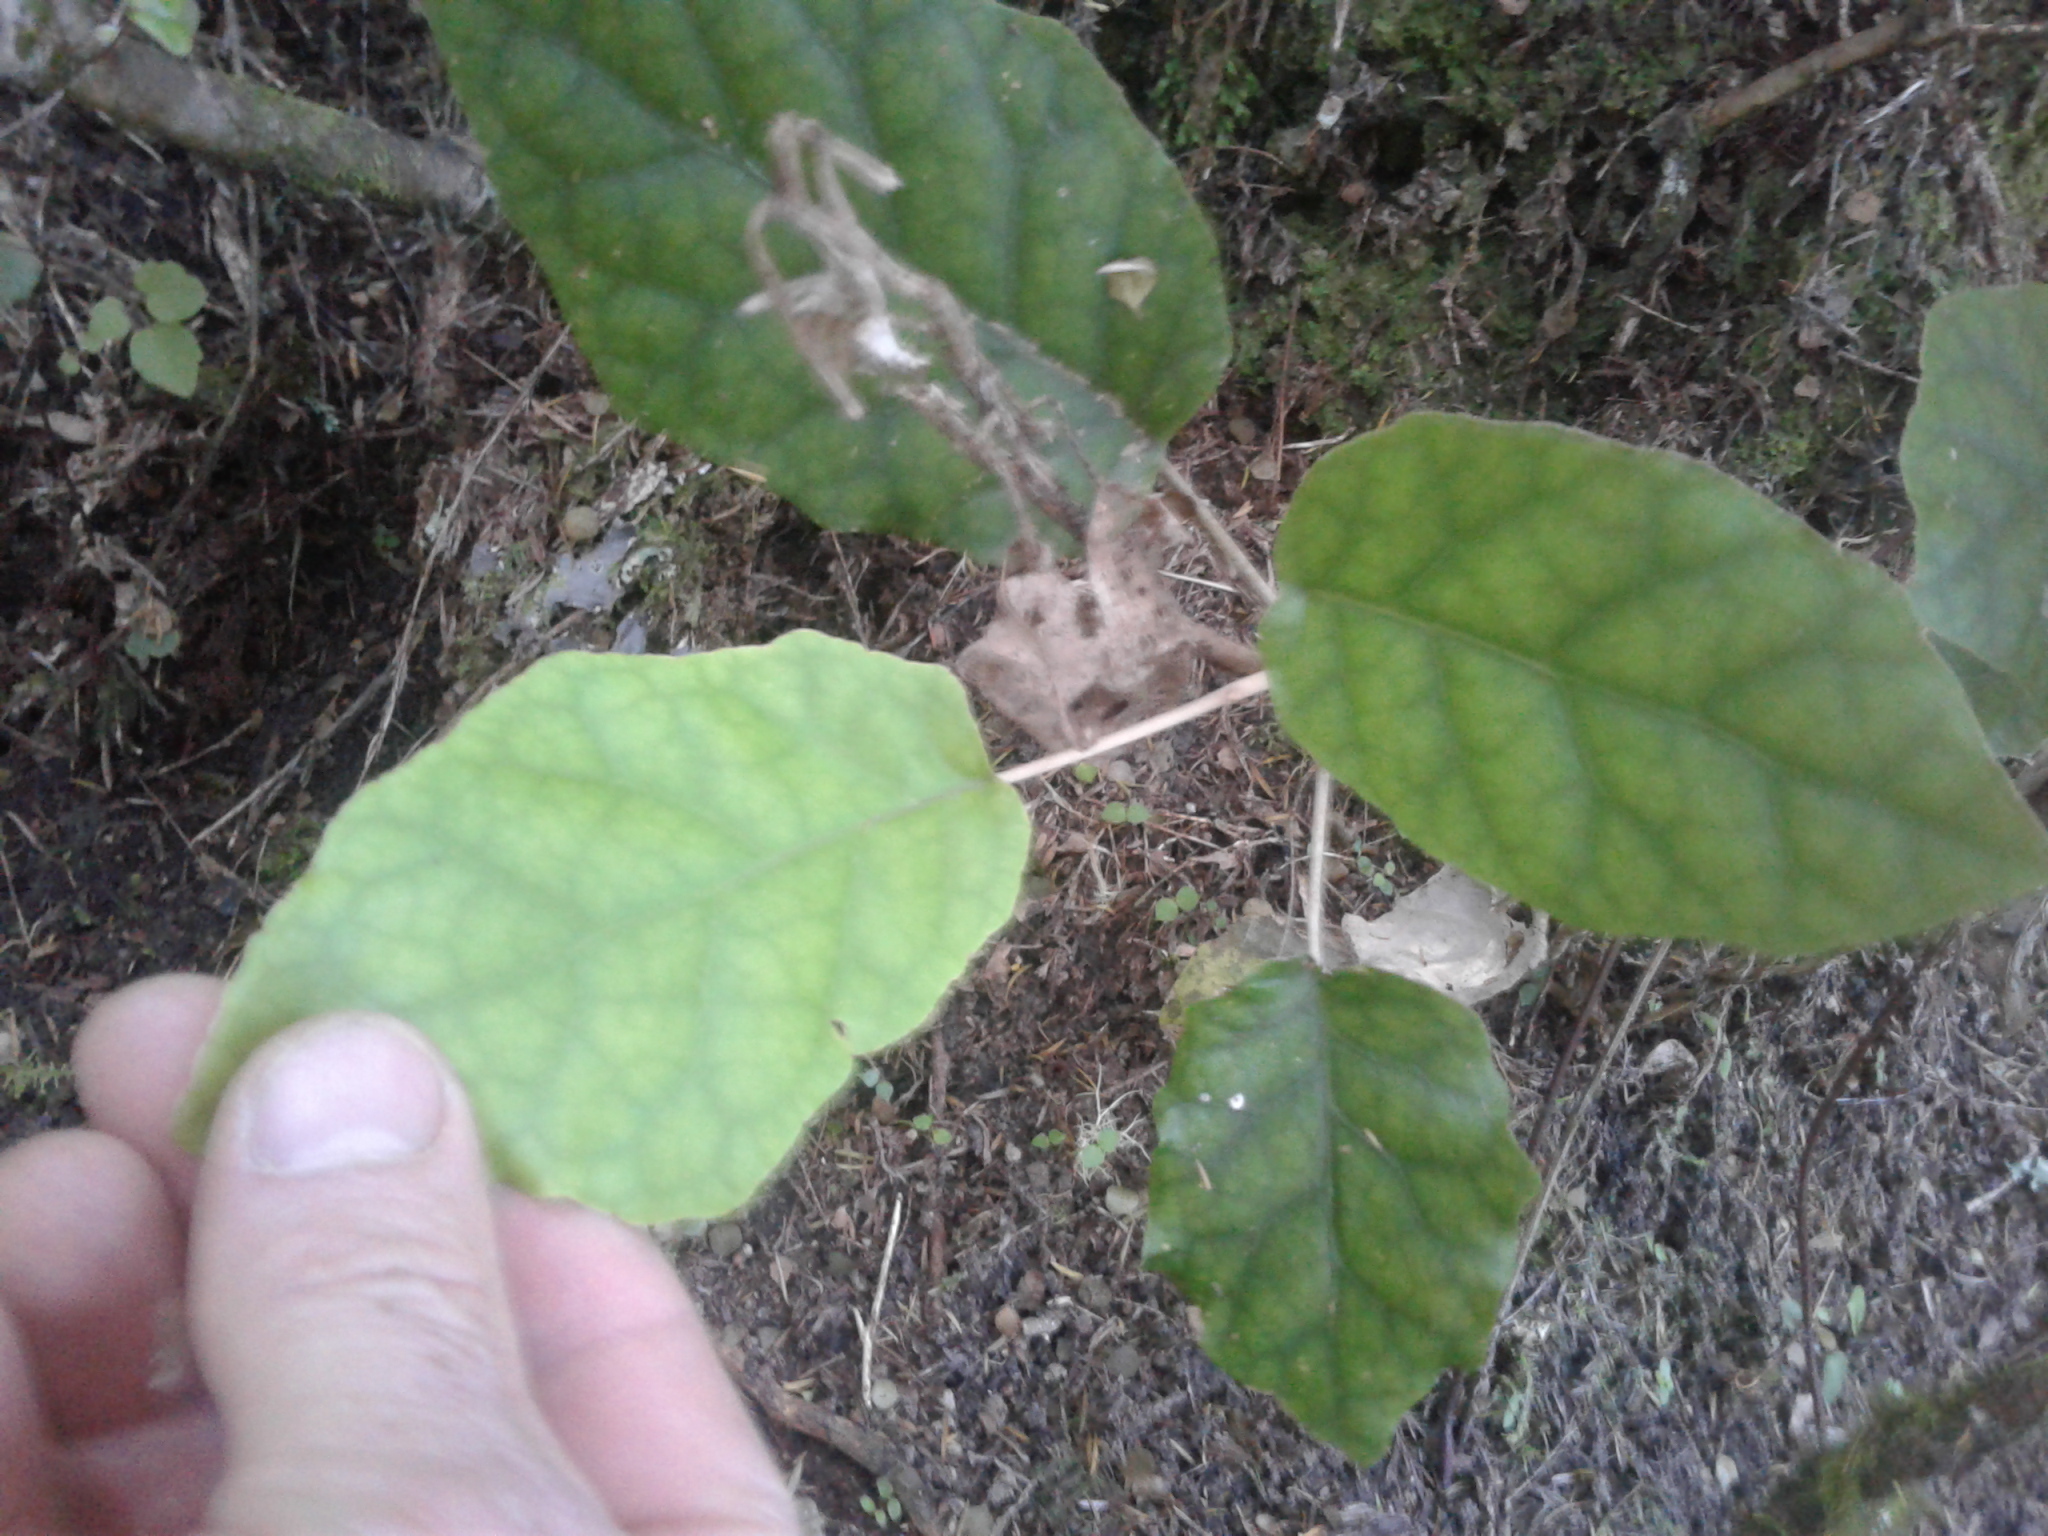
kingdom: Plantae
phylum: Tracheophyta
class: Magnoliopsida
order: Asterales
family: Asteraceae
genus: Brachyglottis
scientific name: Brachyglottis repanda
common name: Hedge ragwort
